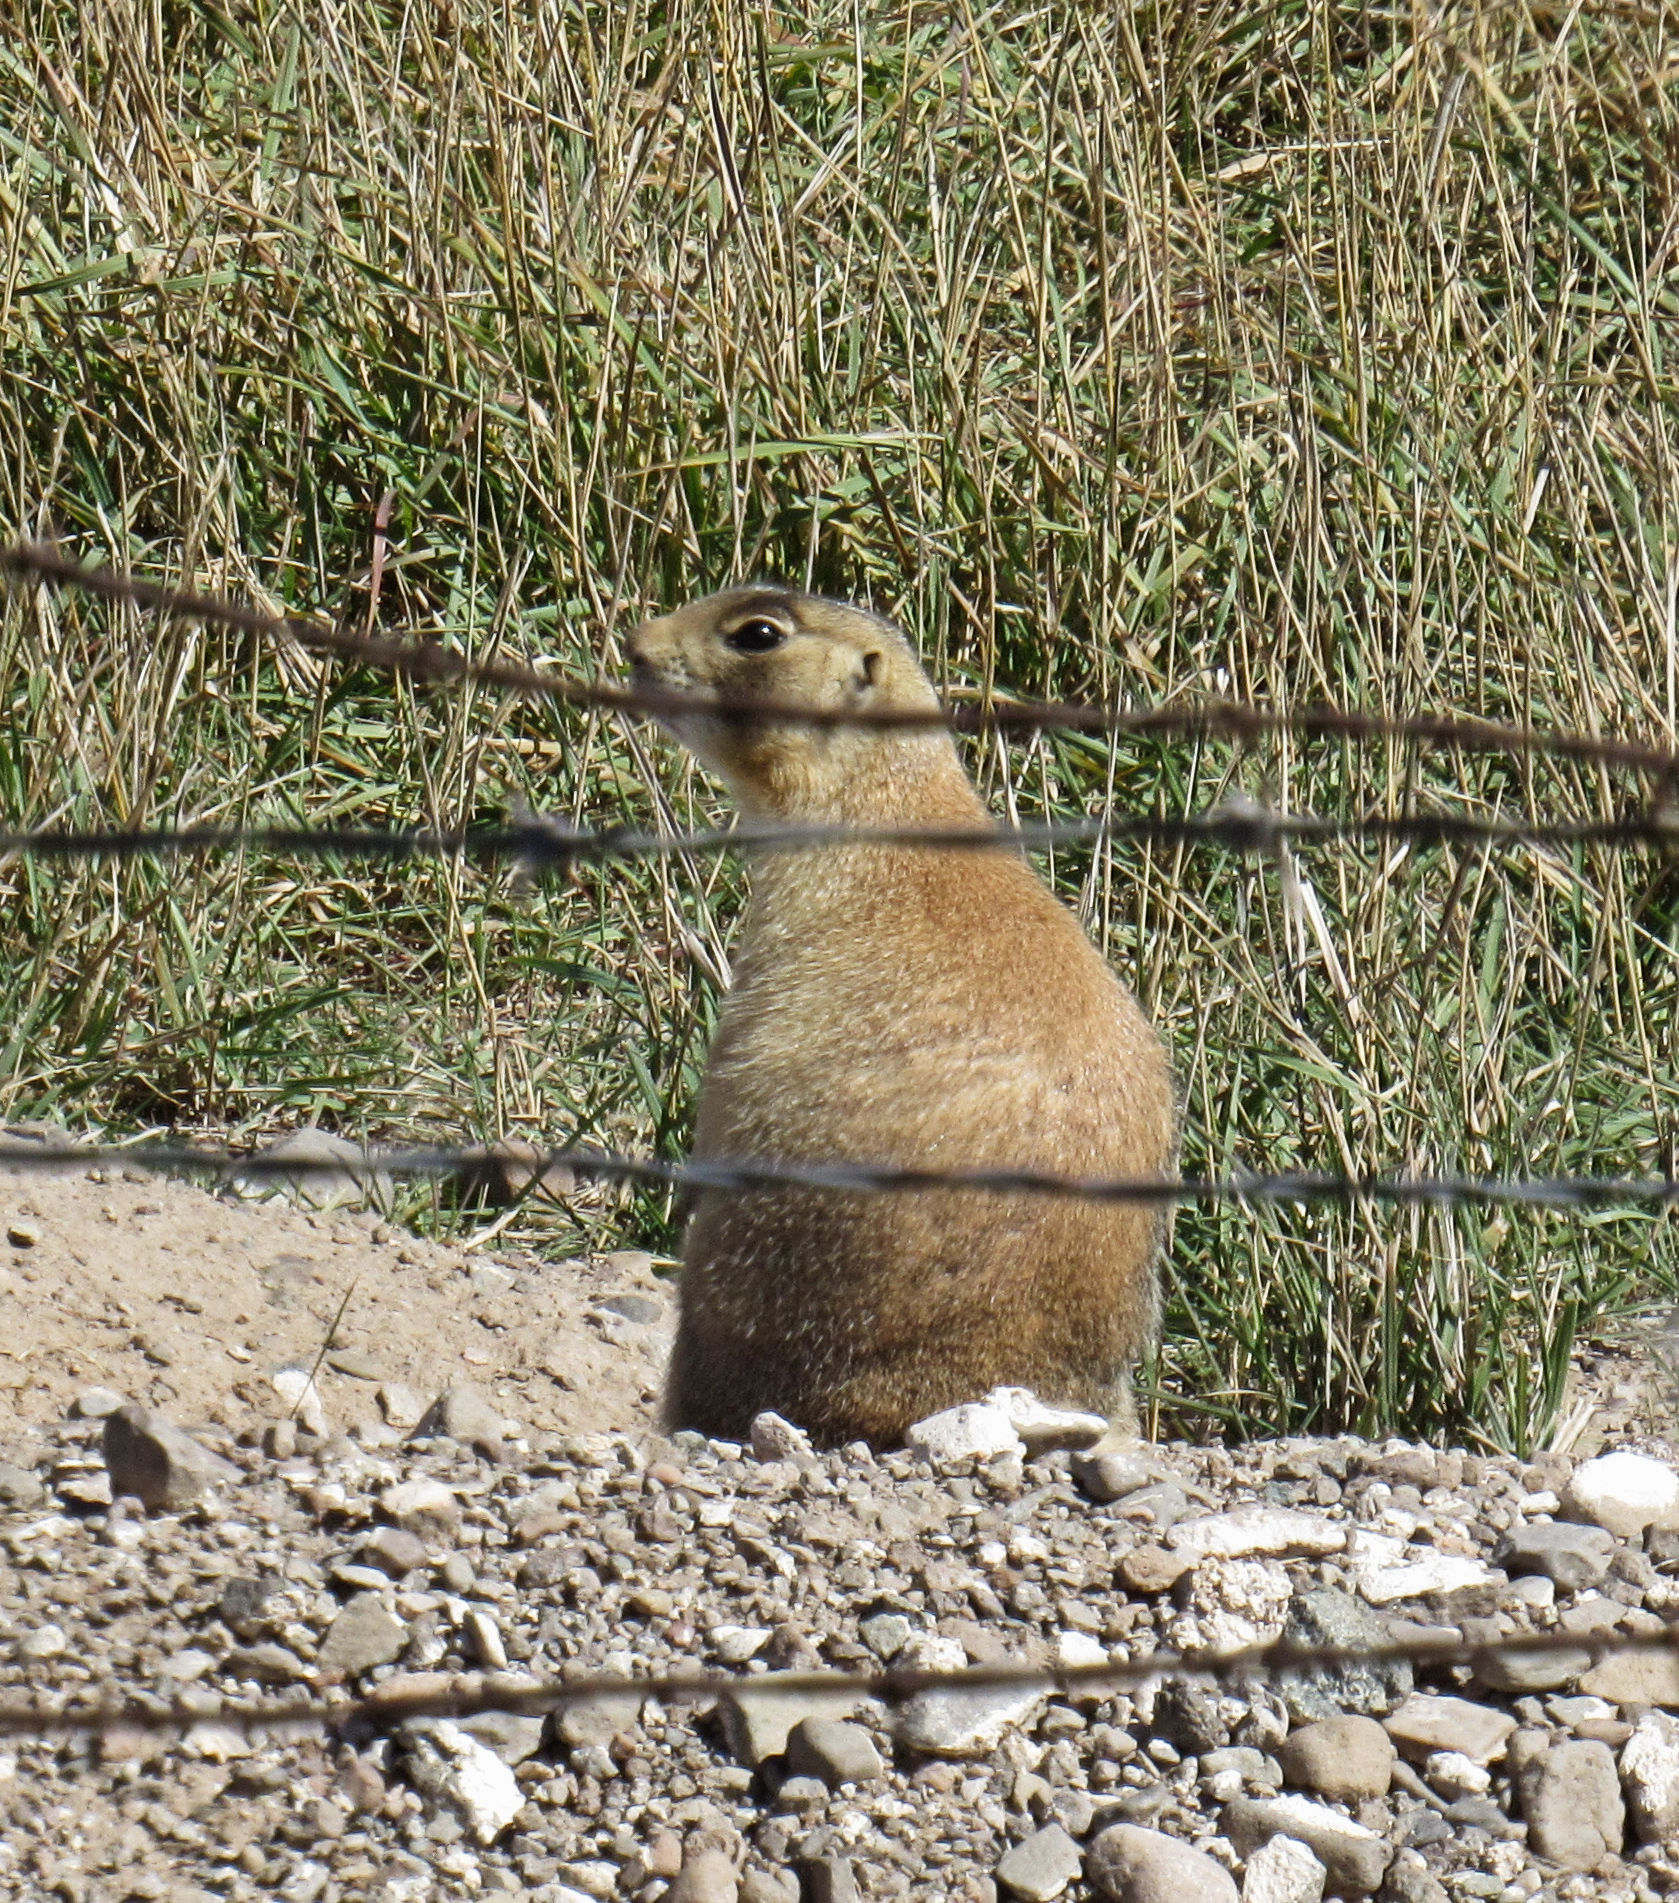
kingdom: Animalia
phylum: Chordata
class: Mammalia
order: Rodentia
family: Sciuridae
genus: Cynomys
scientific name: Cynomys parvidens
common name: Utah prairie dog
